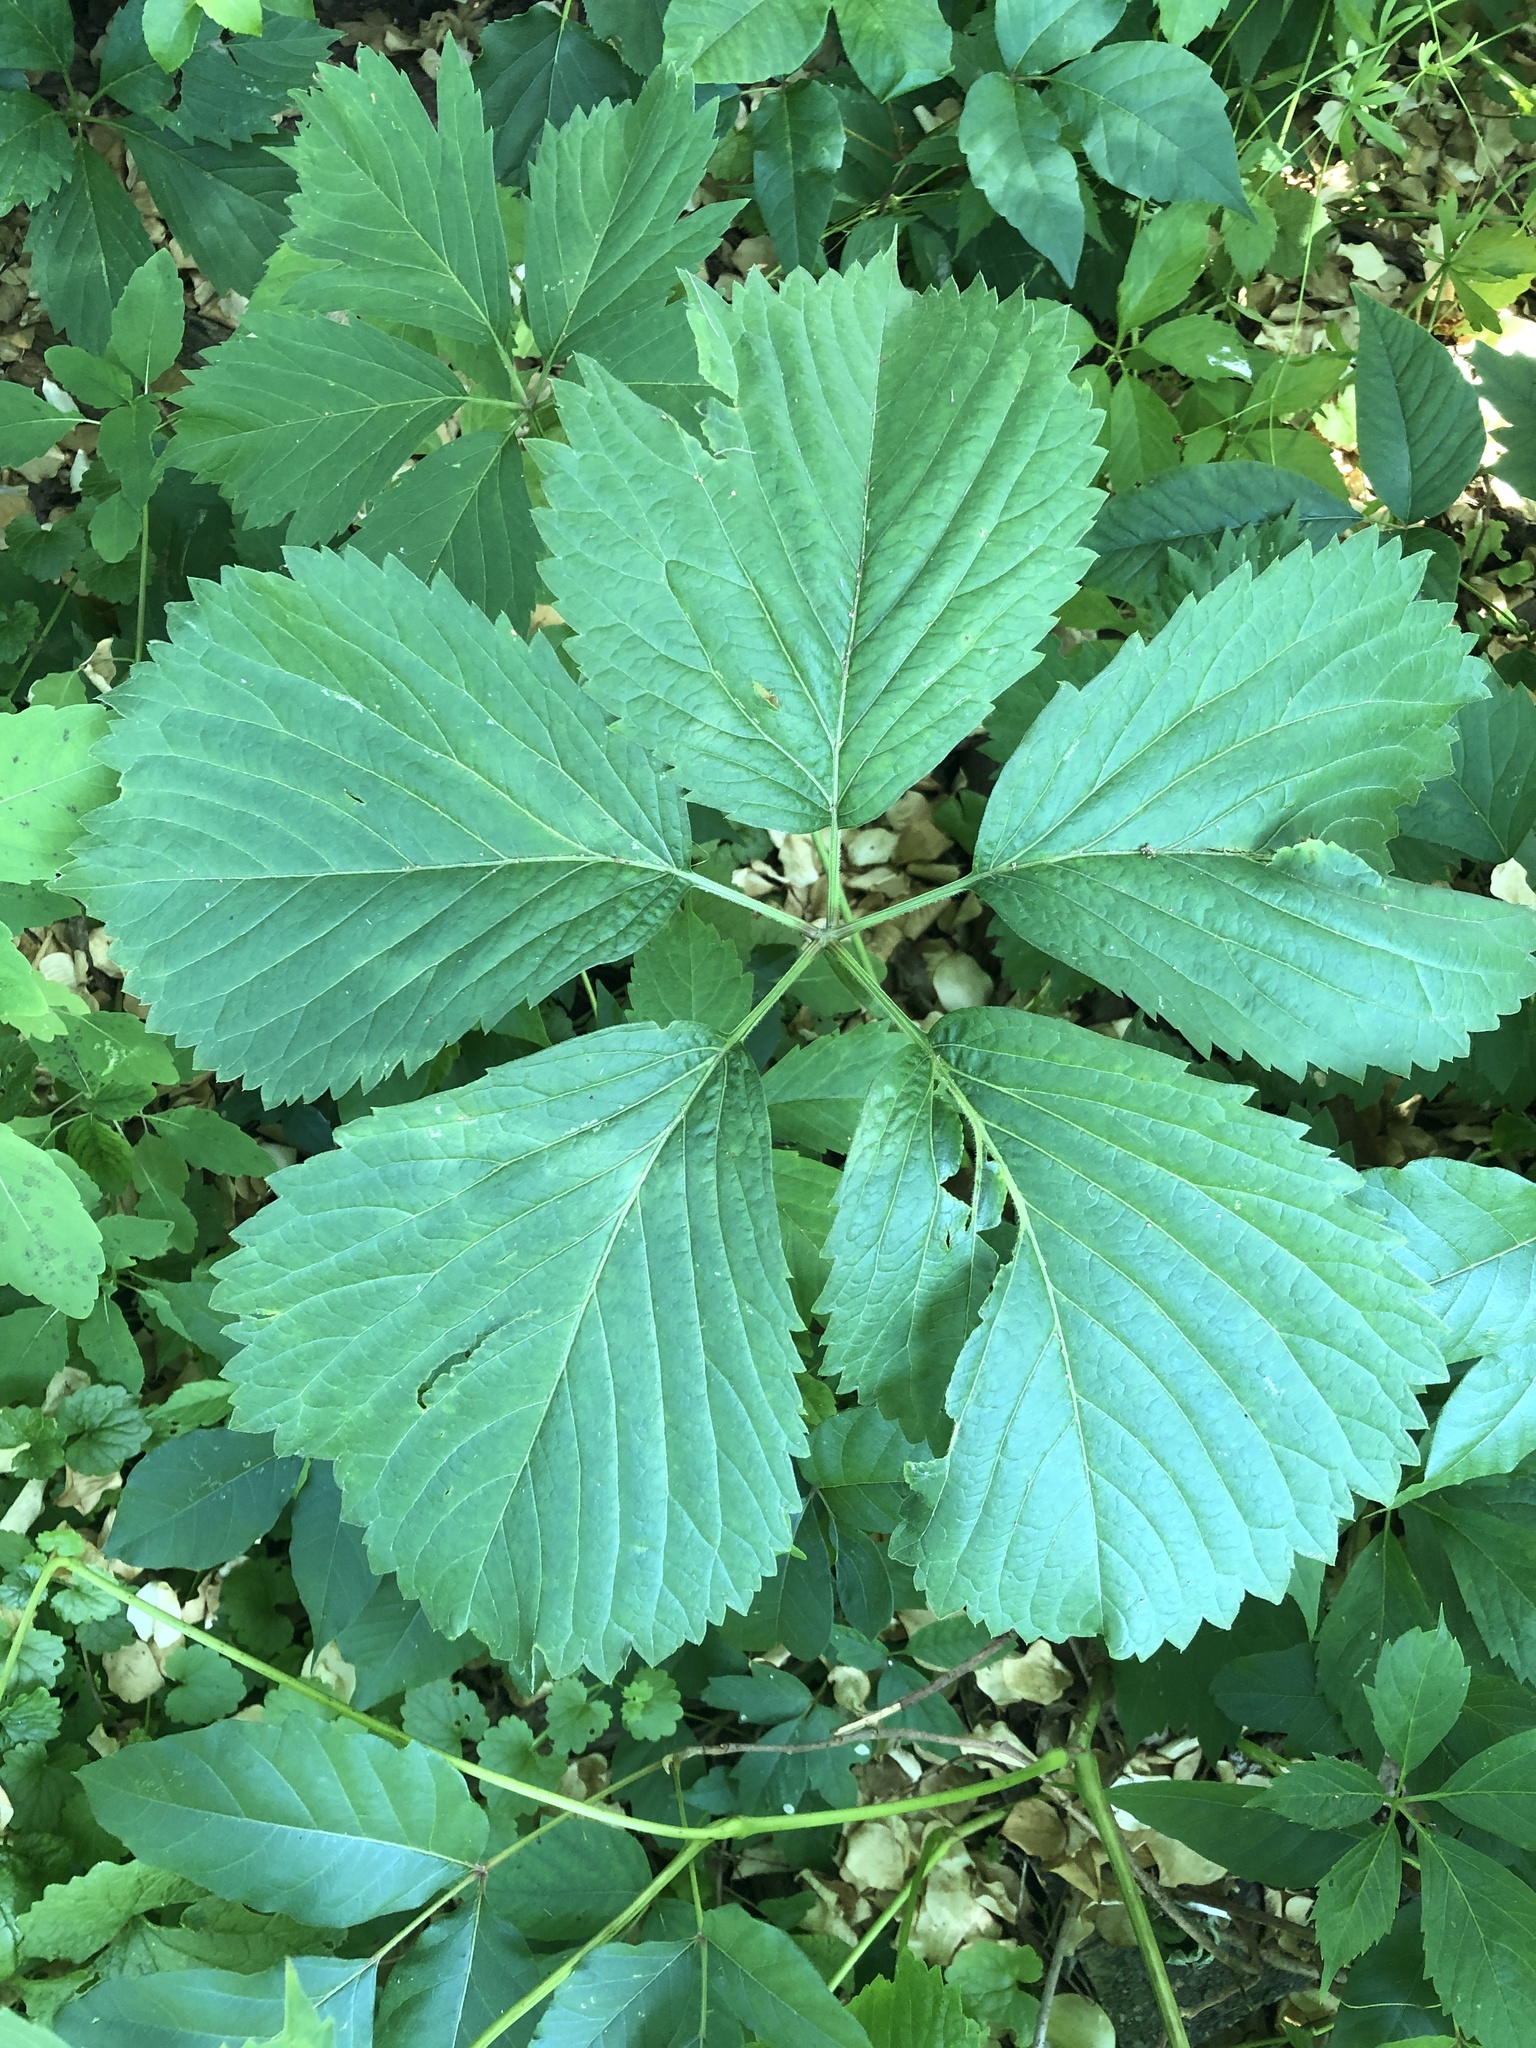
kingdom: Plantae
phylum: Tracheophyta
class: Magnoliopsida
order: Vitales
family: Vitaceae
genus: Parthenocissus
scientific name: Parthenocissus inserta
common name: False virginia-creeper
